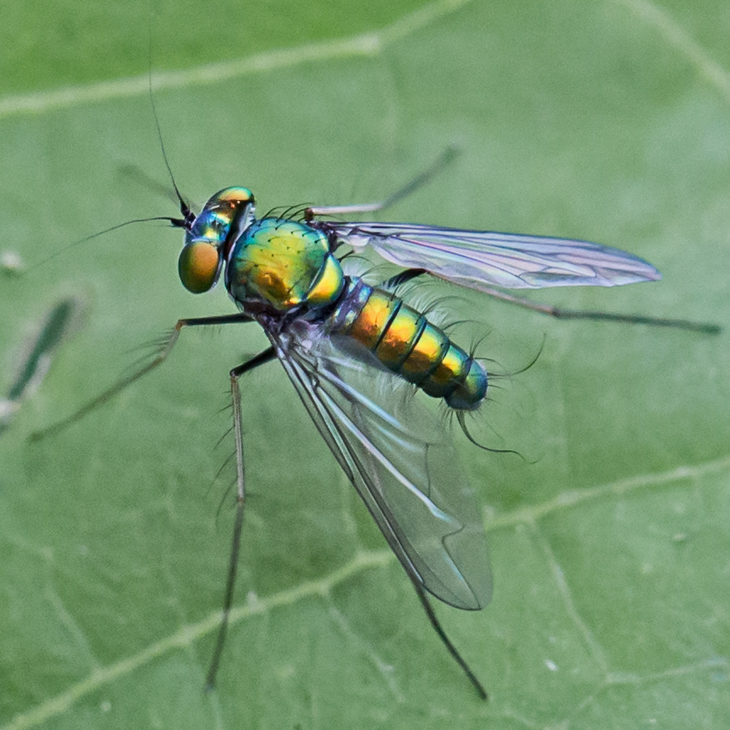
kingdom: Animalia
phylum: Arthropoda
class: Insecta
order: Diptera
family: Dolichopodidae
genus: Condylostylus
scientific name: Condylostylus comatus
